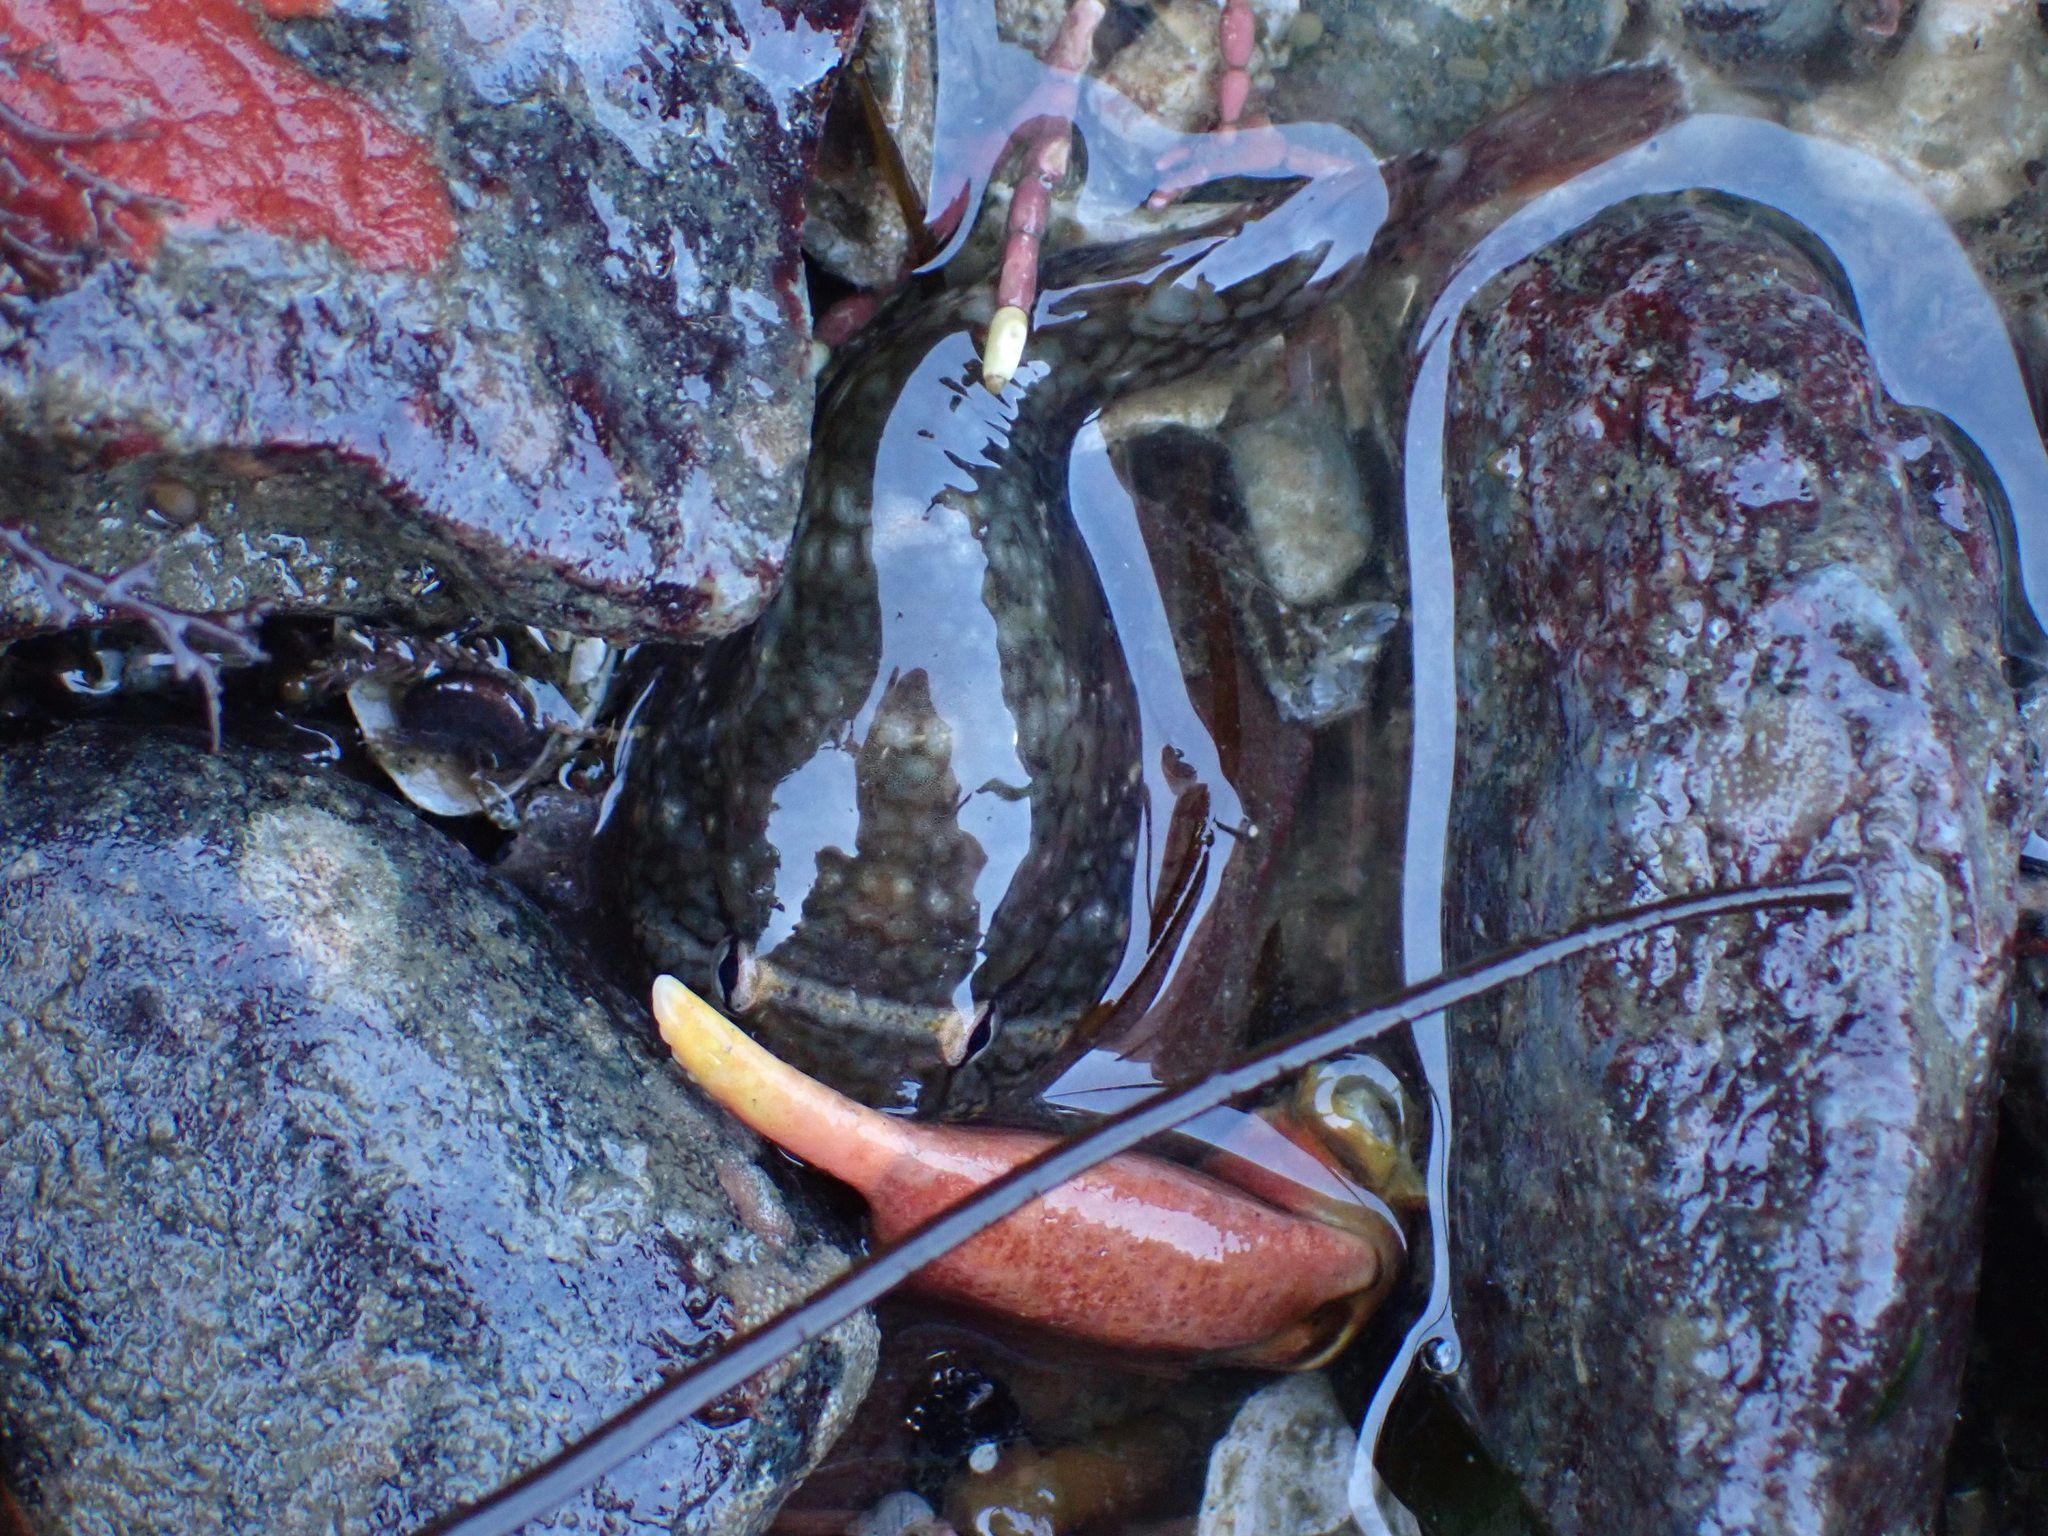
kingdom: Animalia
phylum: Chordata
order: Gobiesociformes
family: Gobiesocidae
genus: Gobiesox
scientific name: Gobiesox maeandricus
